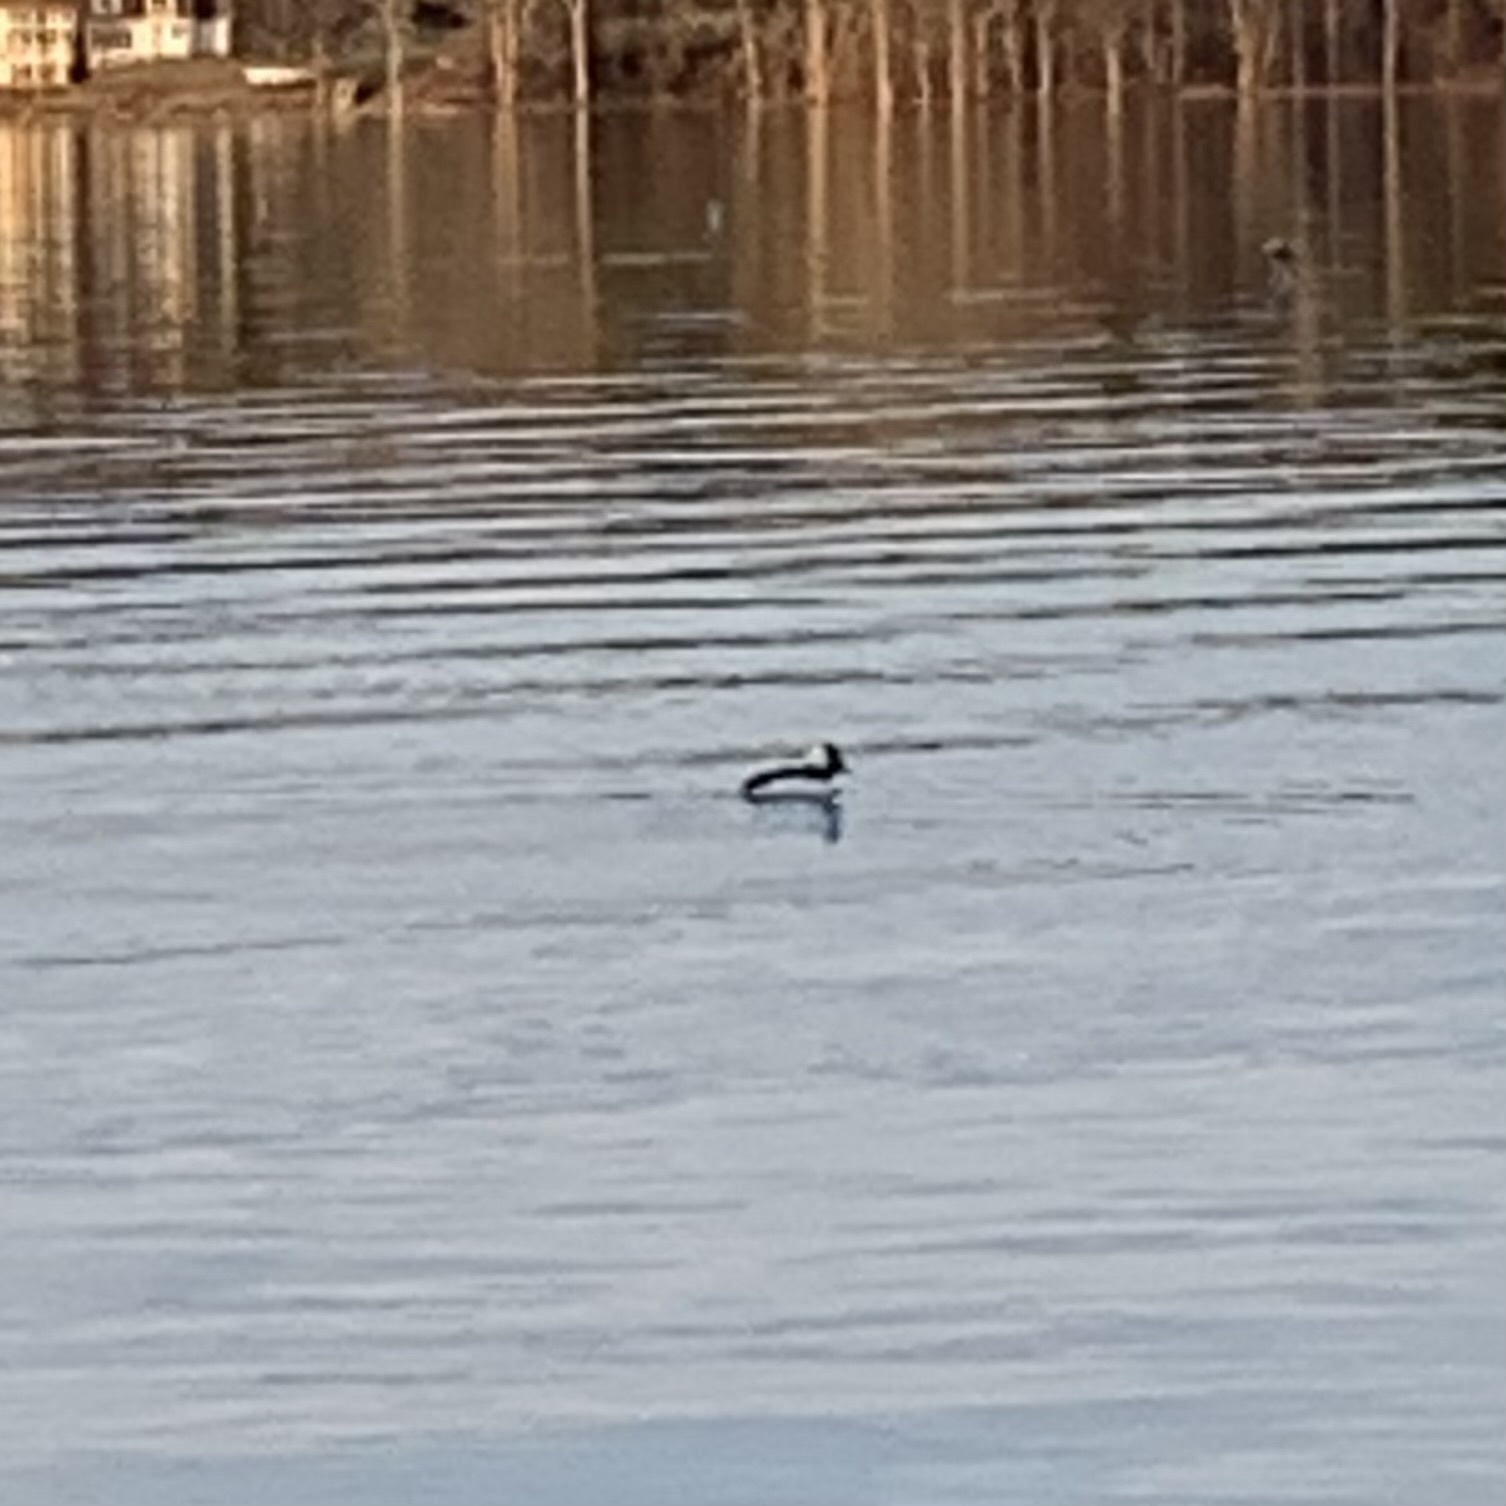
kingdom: Animalia
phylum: Chordata
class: Aves
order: Anseriformes
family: Anatidae
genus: Bucephala
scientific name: Bucephala albeola
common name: Bufflehead
